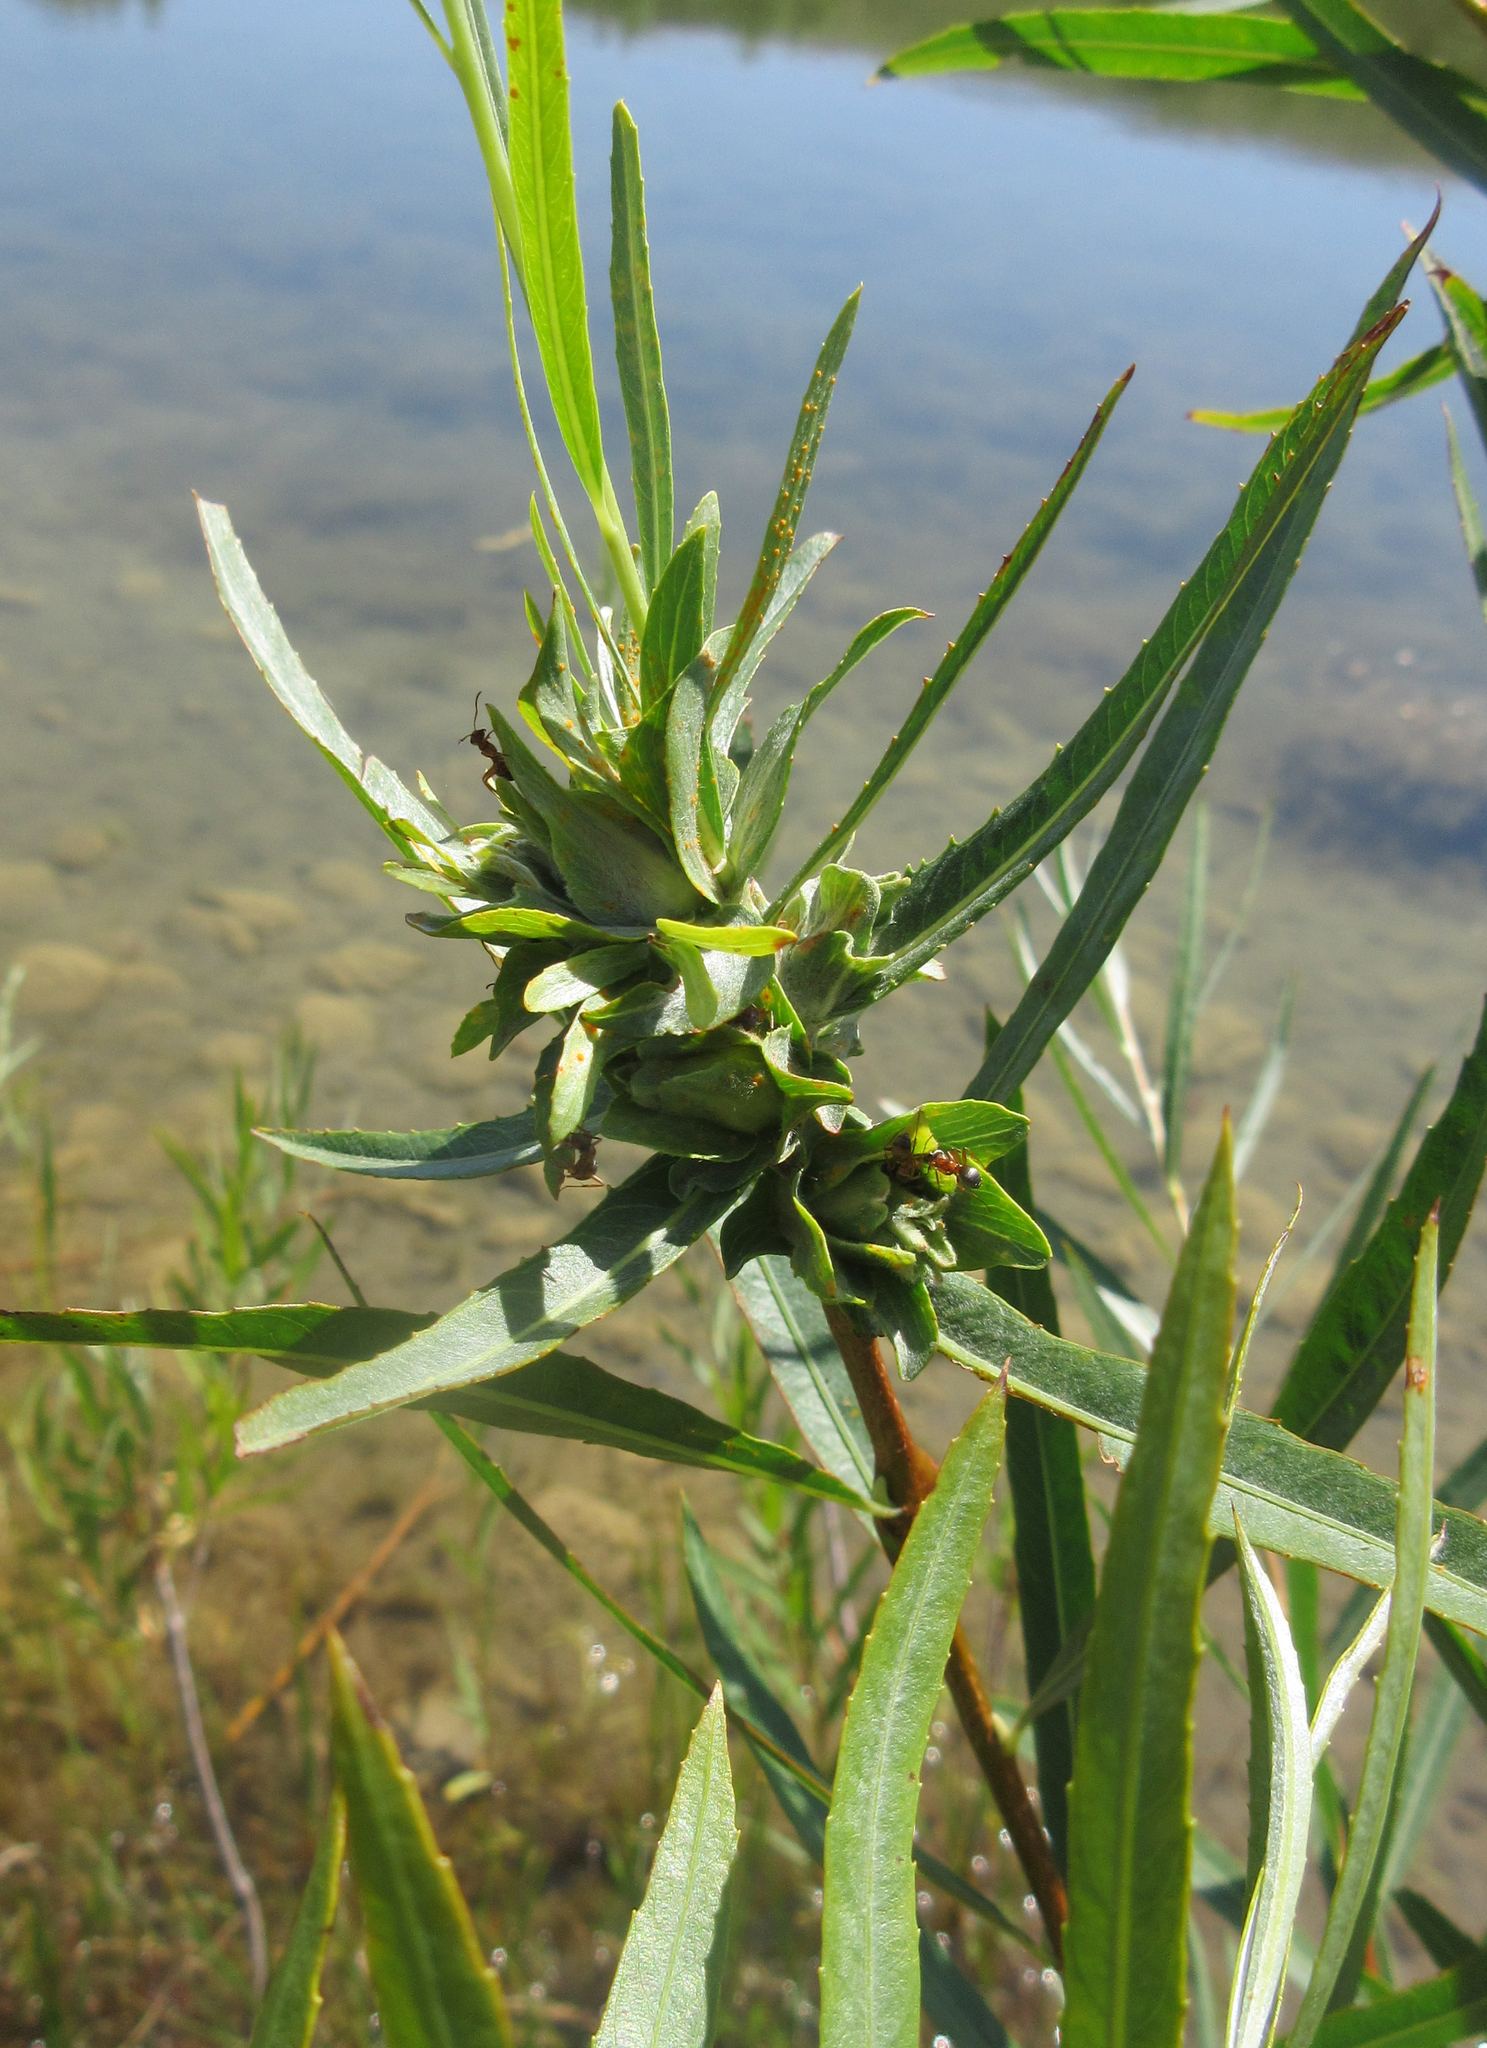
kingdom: Plantae
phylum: Tracheophyta
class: Magnoliopsida
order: Malpighiales
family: Salicaceae
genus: Salix
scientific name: Salix interior
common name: Sandbar willow
